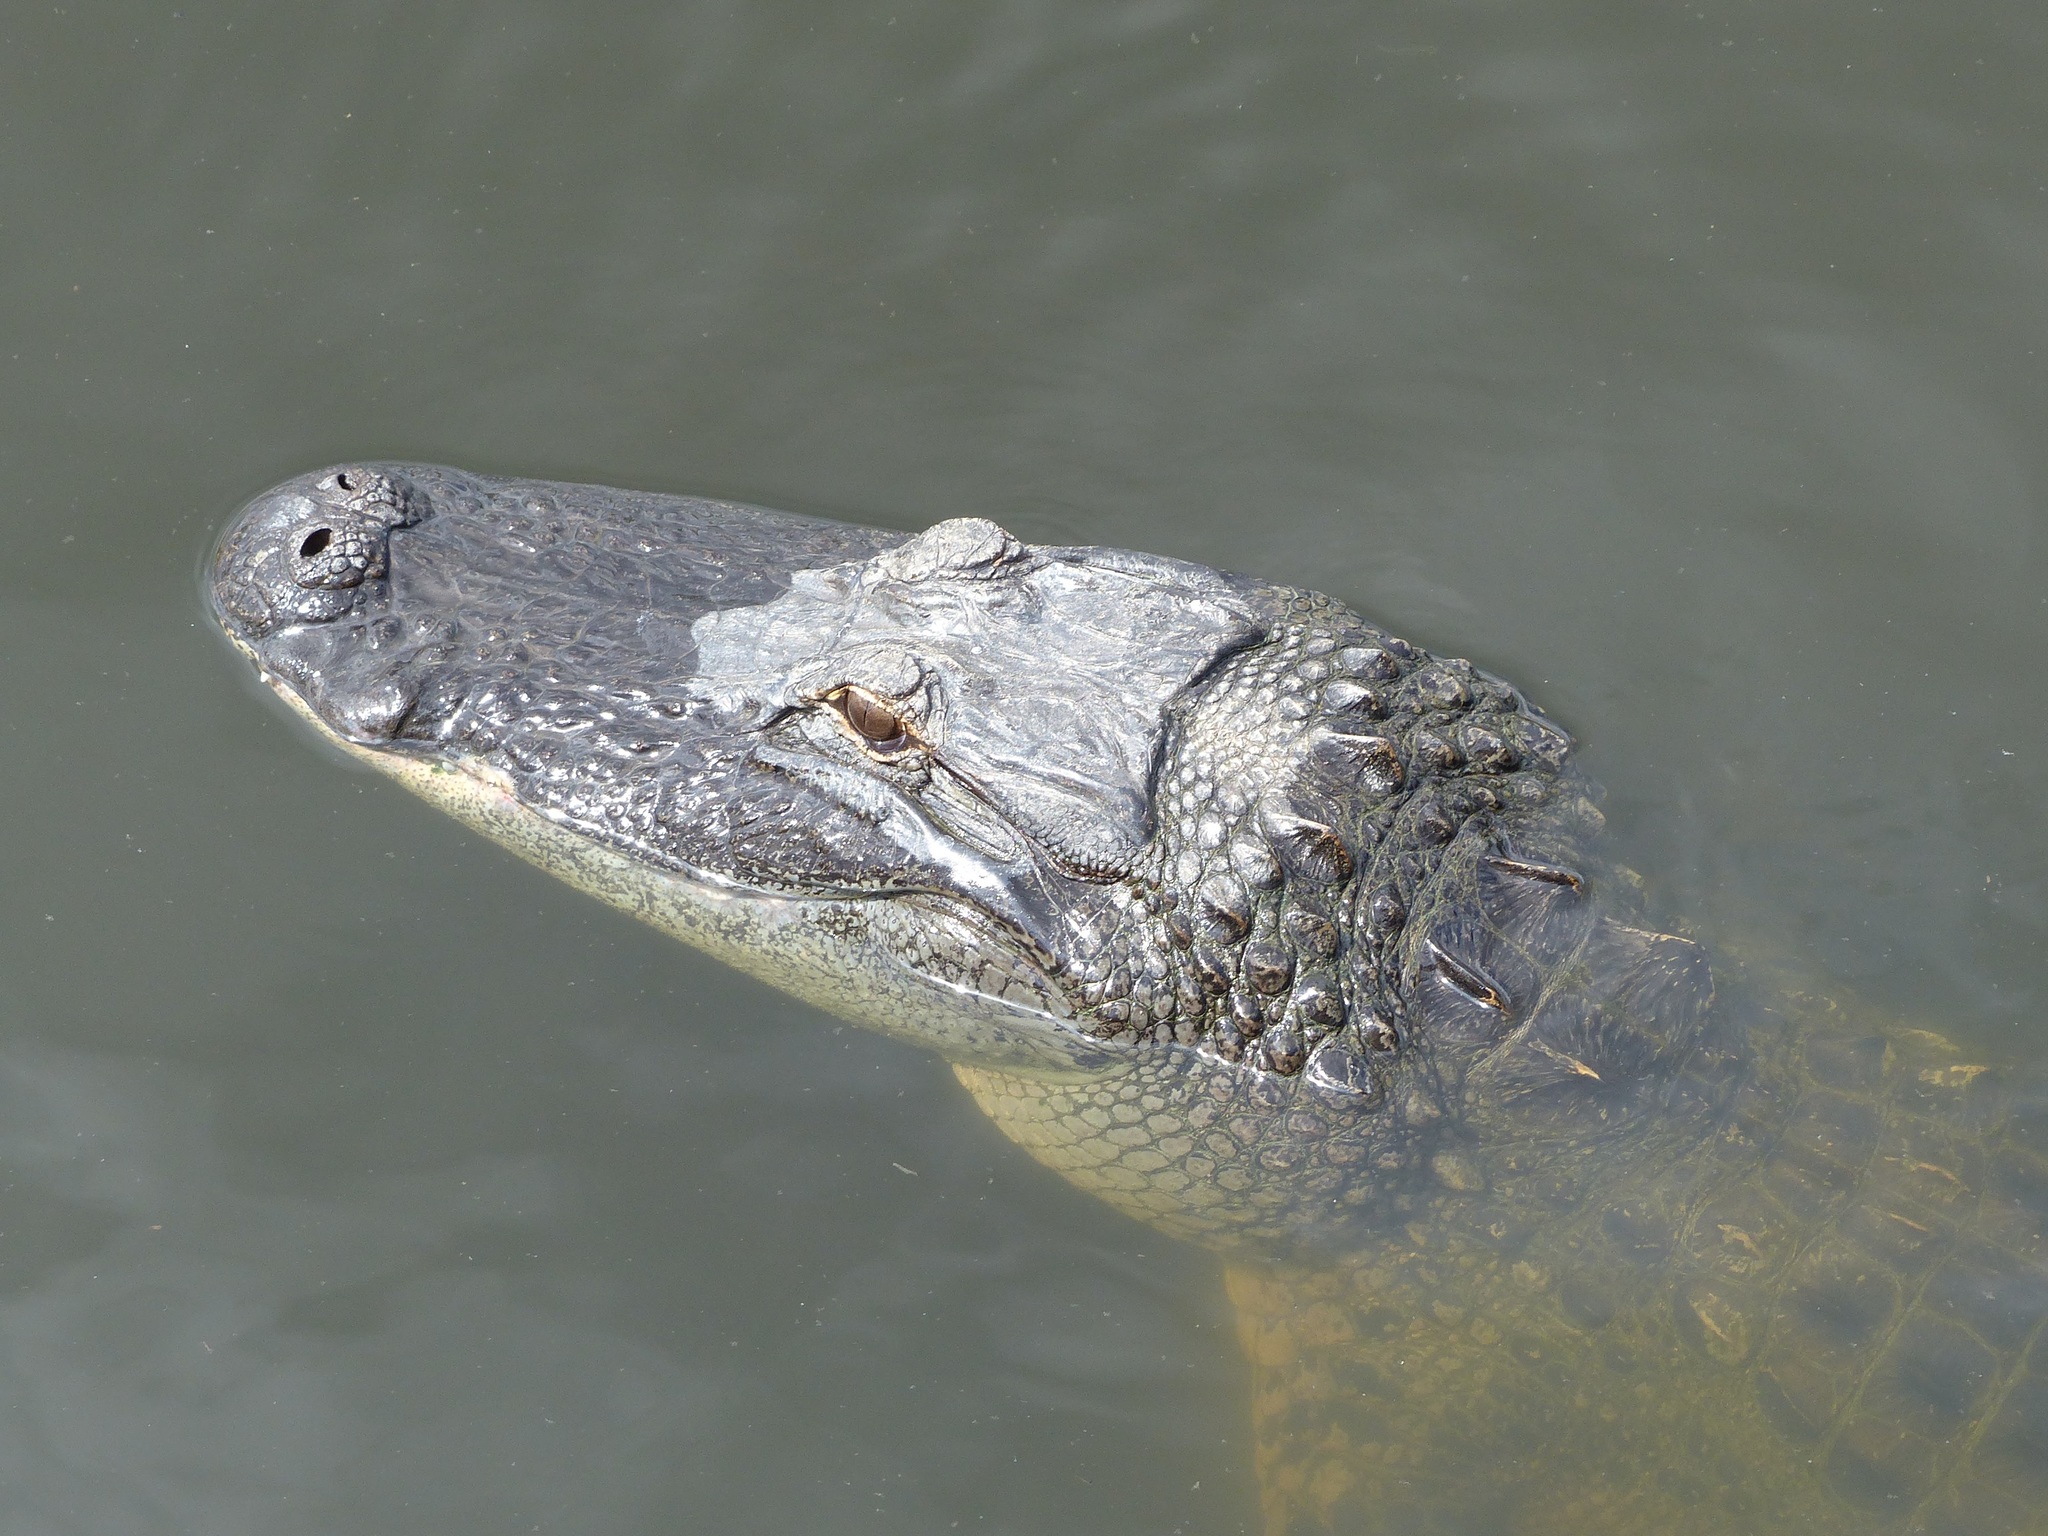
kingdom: Animalia
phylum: Chordata
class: Crocodylia
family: Alligatoridae
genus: Alligator
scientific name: Alligator mississippiensis
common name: American alligator
